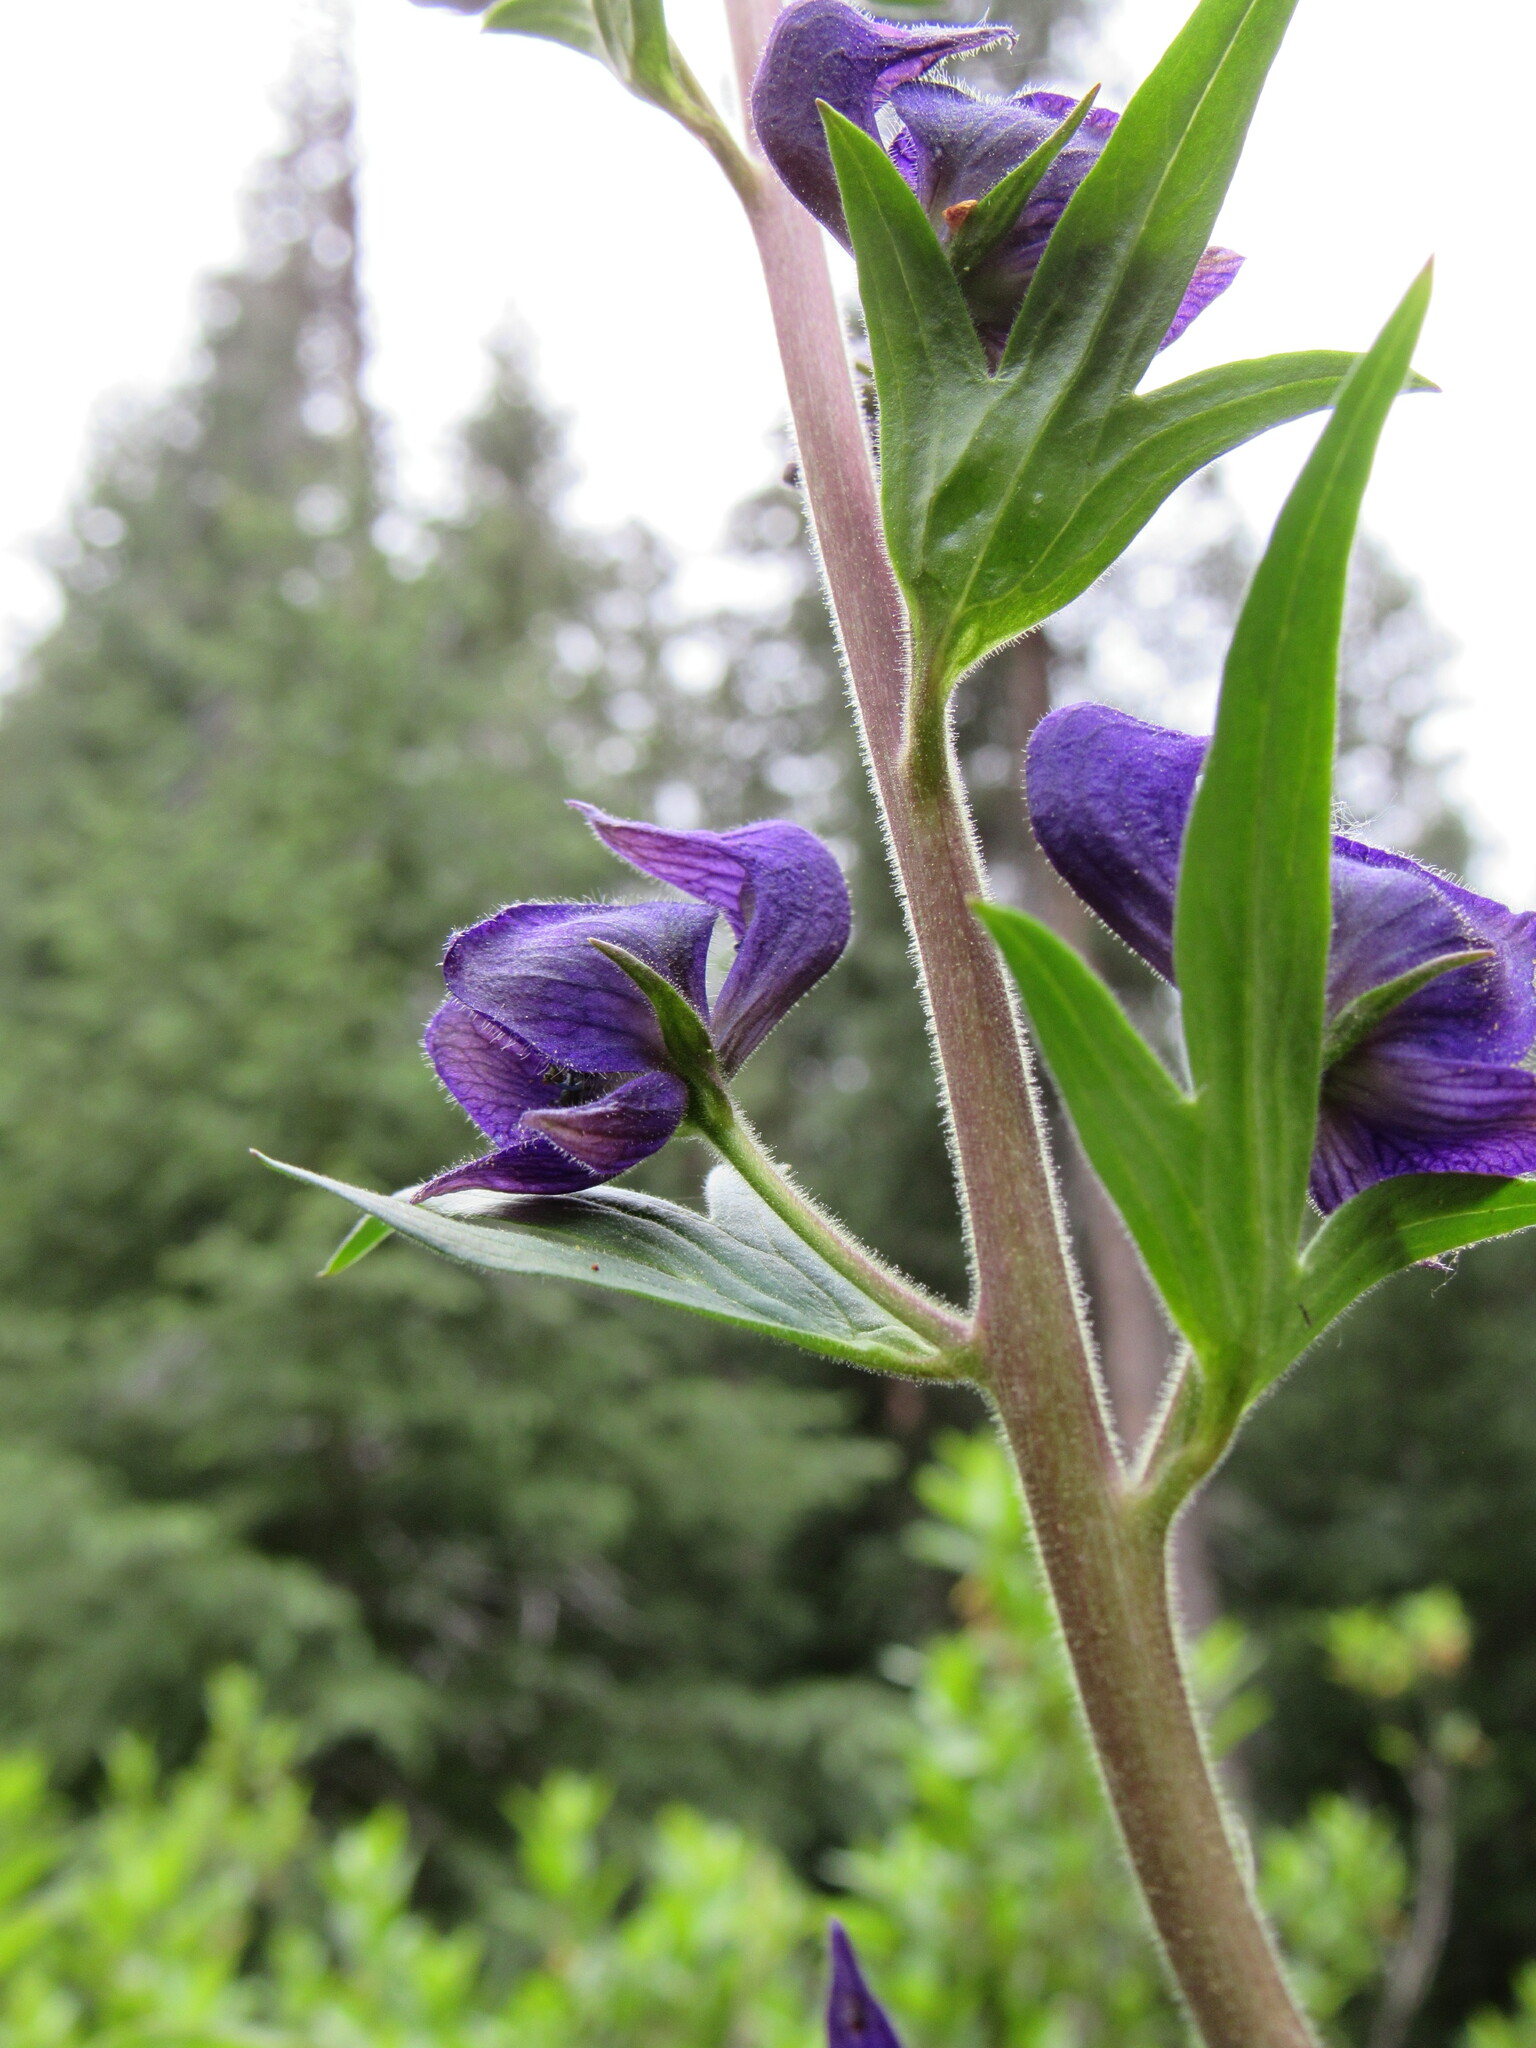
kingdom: Plantae
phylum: Tracheophyta
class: Magnoliopsida
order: Ranunculales
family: Ranunculaceae
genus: Aconitum
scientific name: Aconitum columbianum
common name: Columbia aconite
